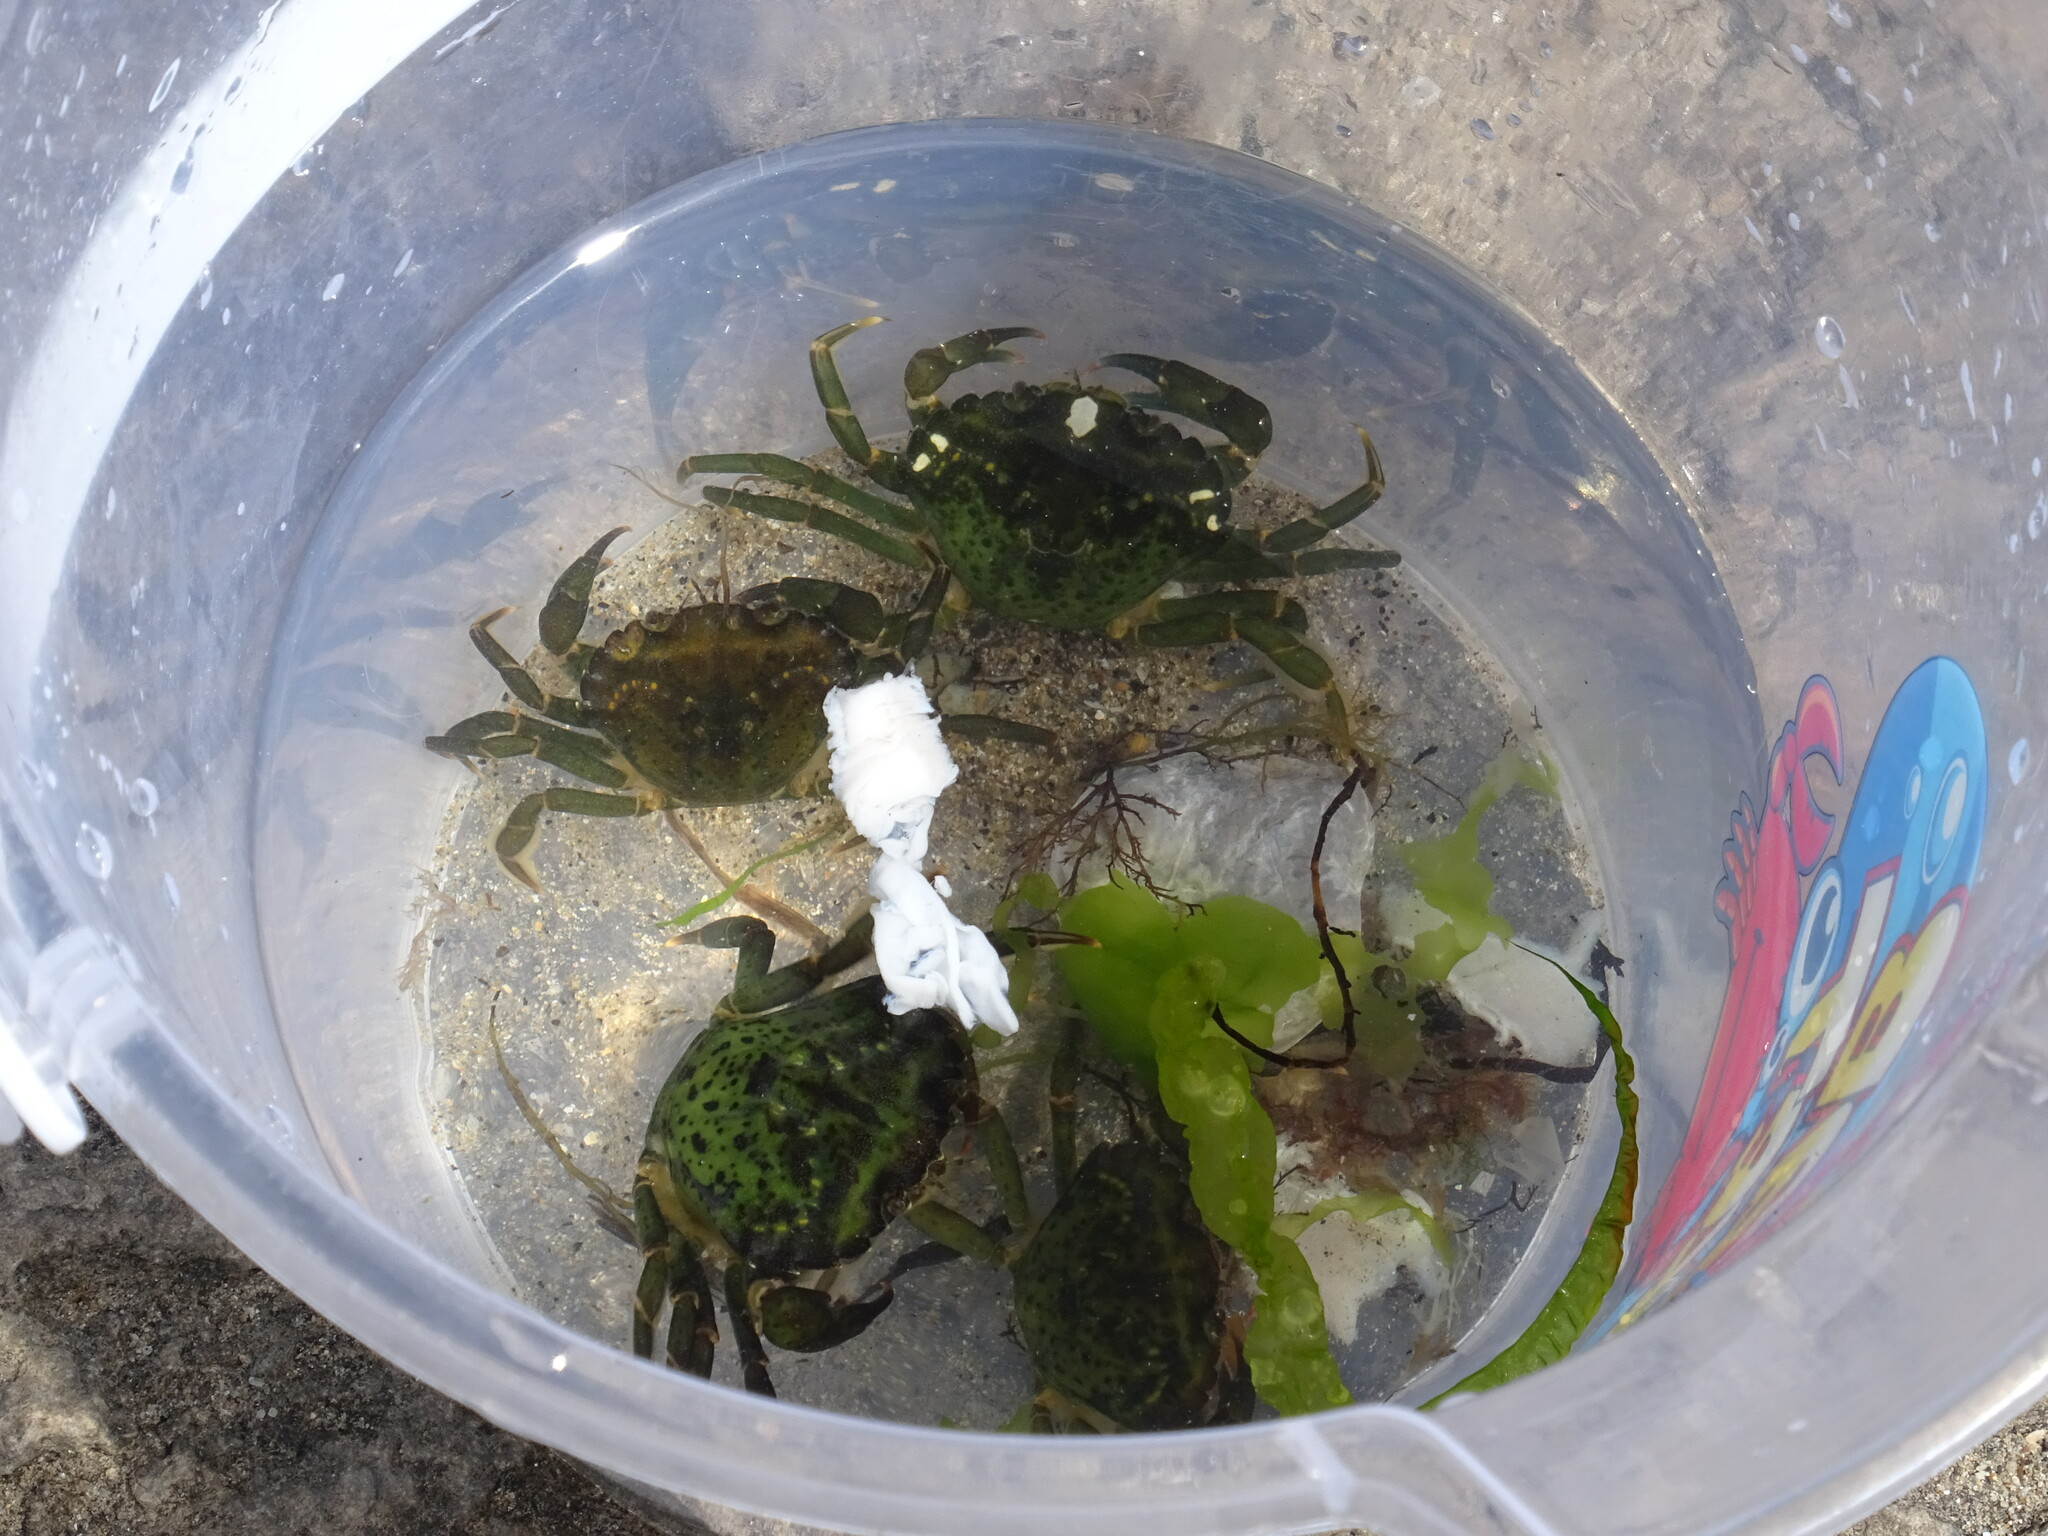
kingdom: Animalia
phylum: Arthropoda
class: Malacostraca
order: Decapoda
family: Carcinidae
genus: Carcinus
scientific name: Carcinus maenas
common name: European green crab
